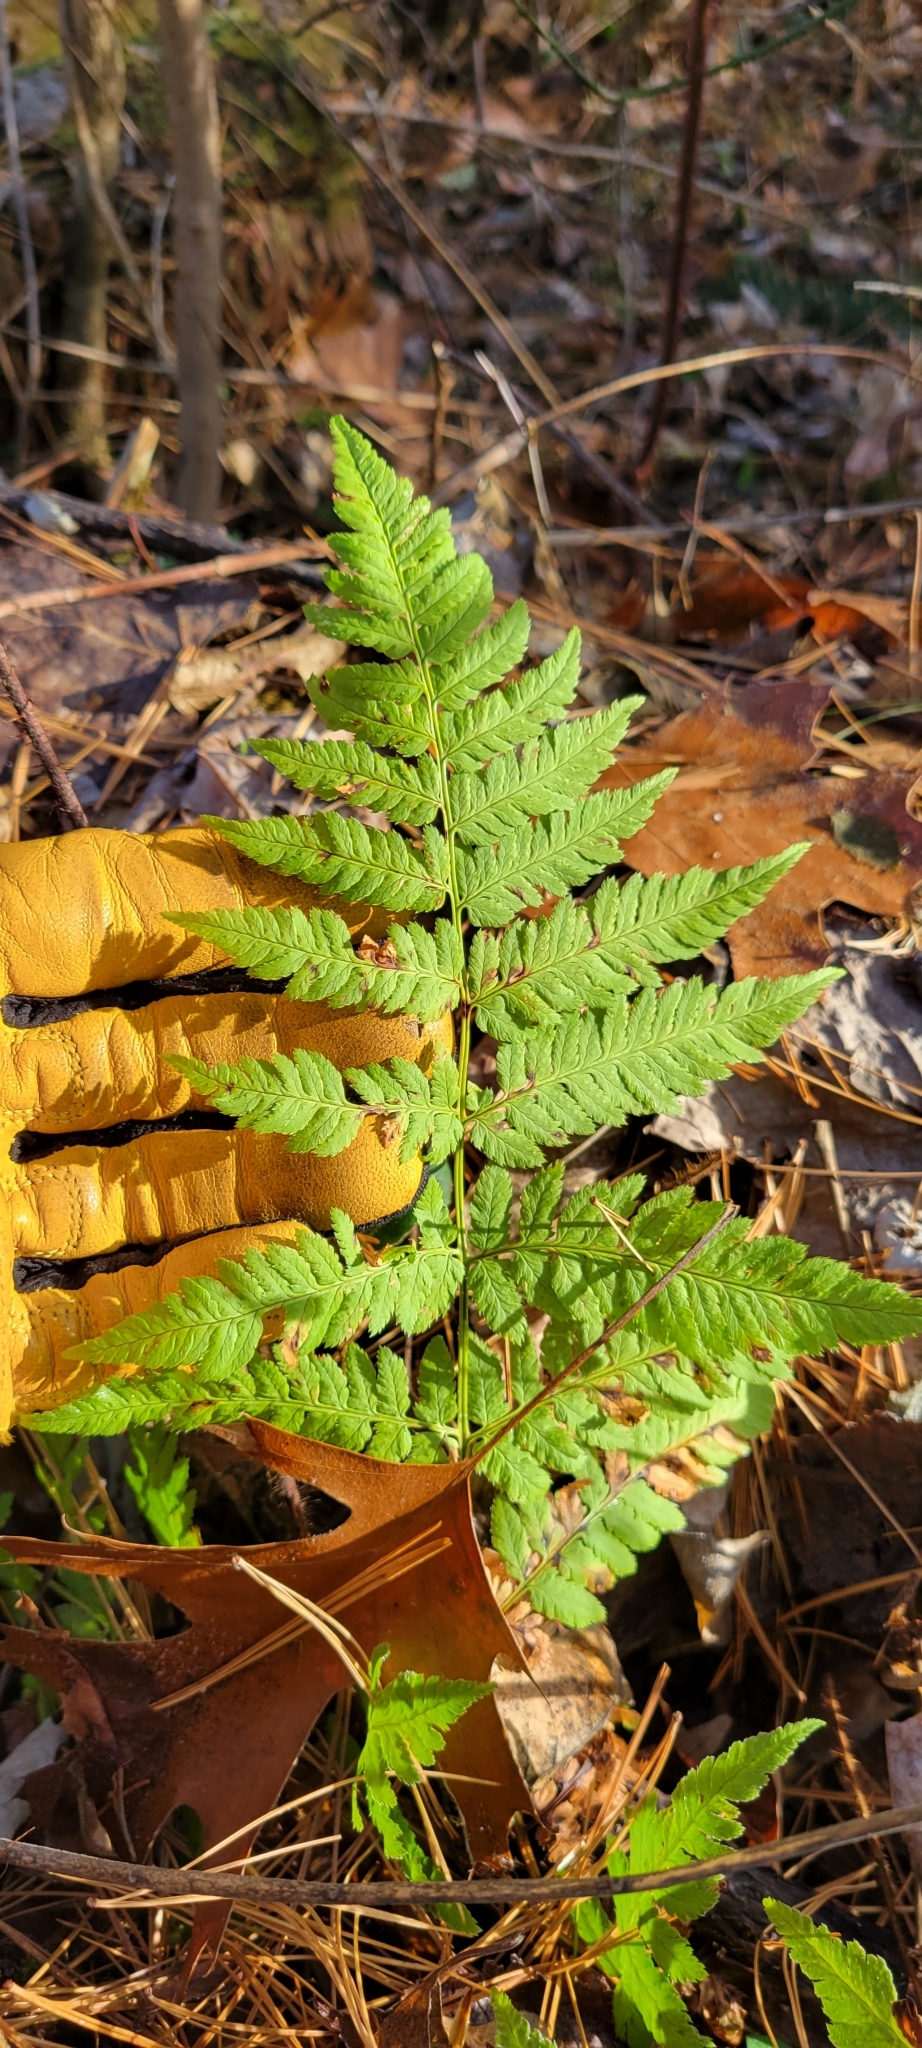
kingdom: Plantae
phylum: Tracheophyta
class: Polypodiopsida
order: Polypodiales
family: Dryopteridaceae
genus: Dryopteris
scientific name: Dryopteris carthusiana
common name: Narrow buckler-fern
